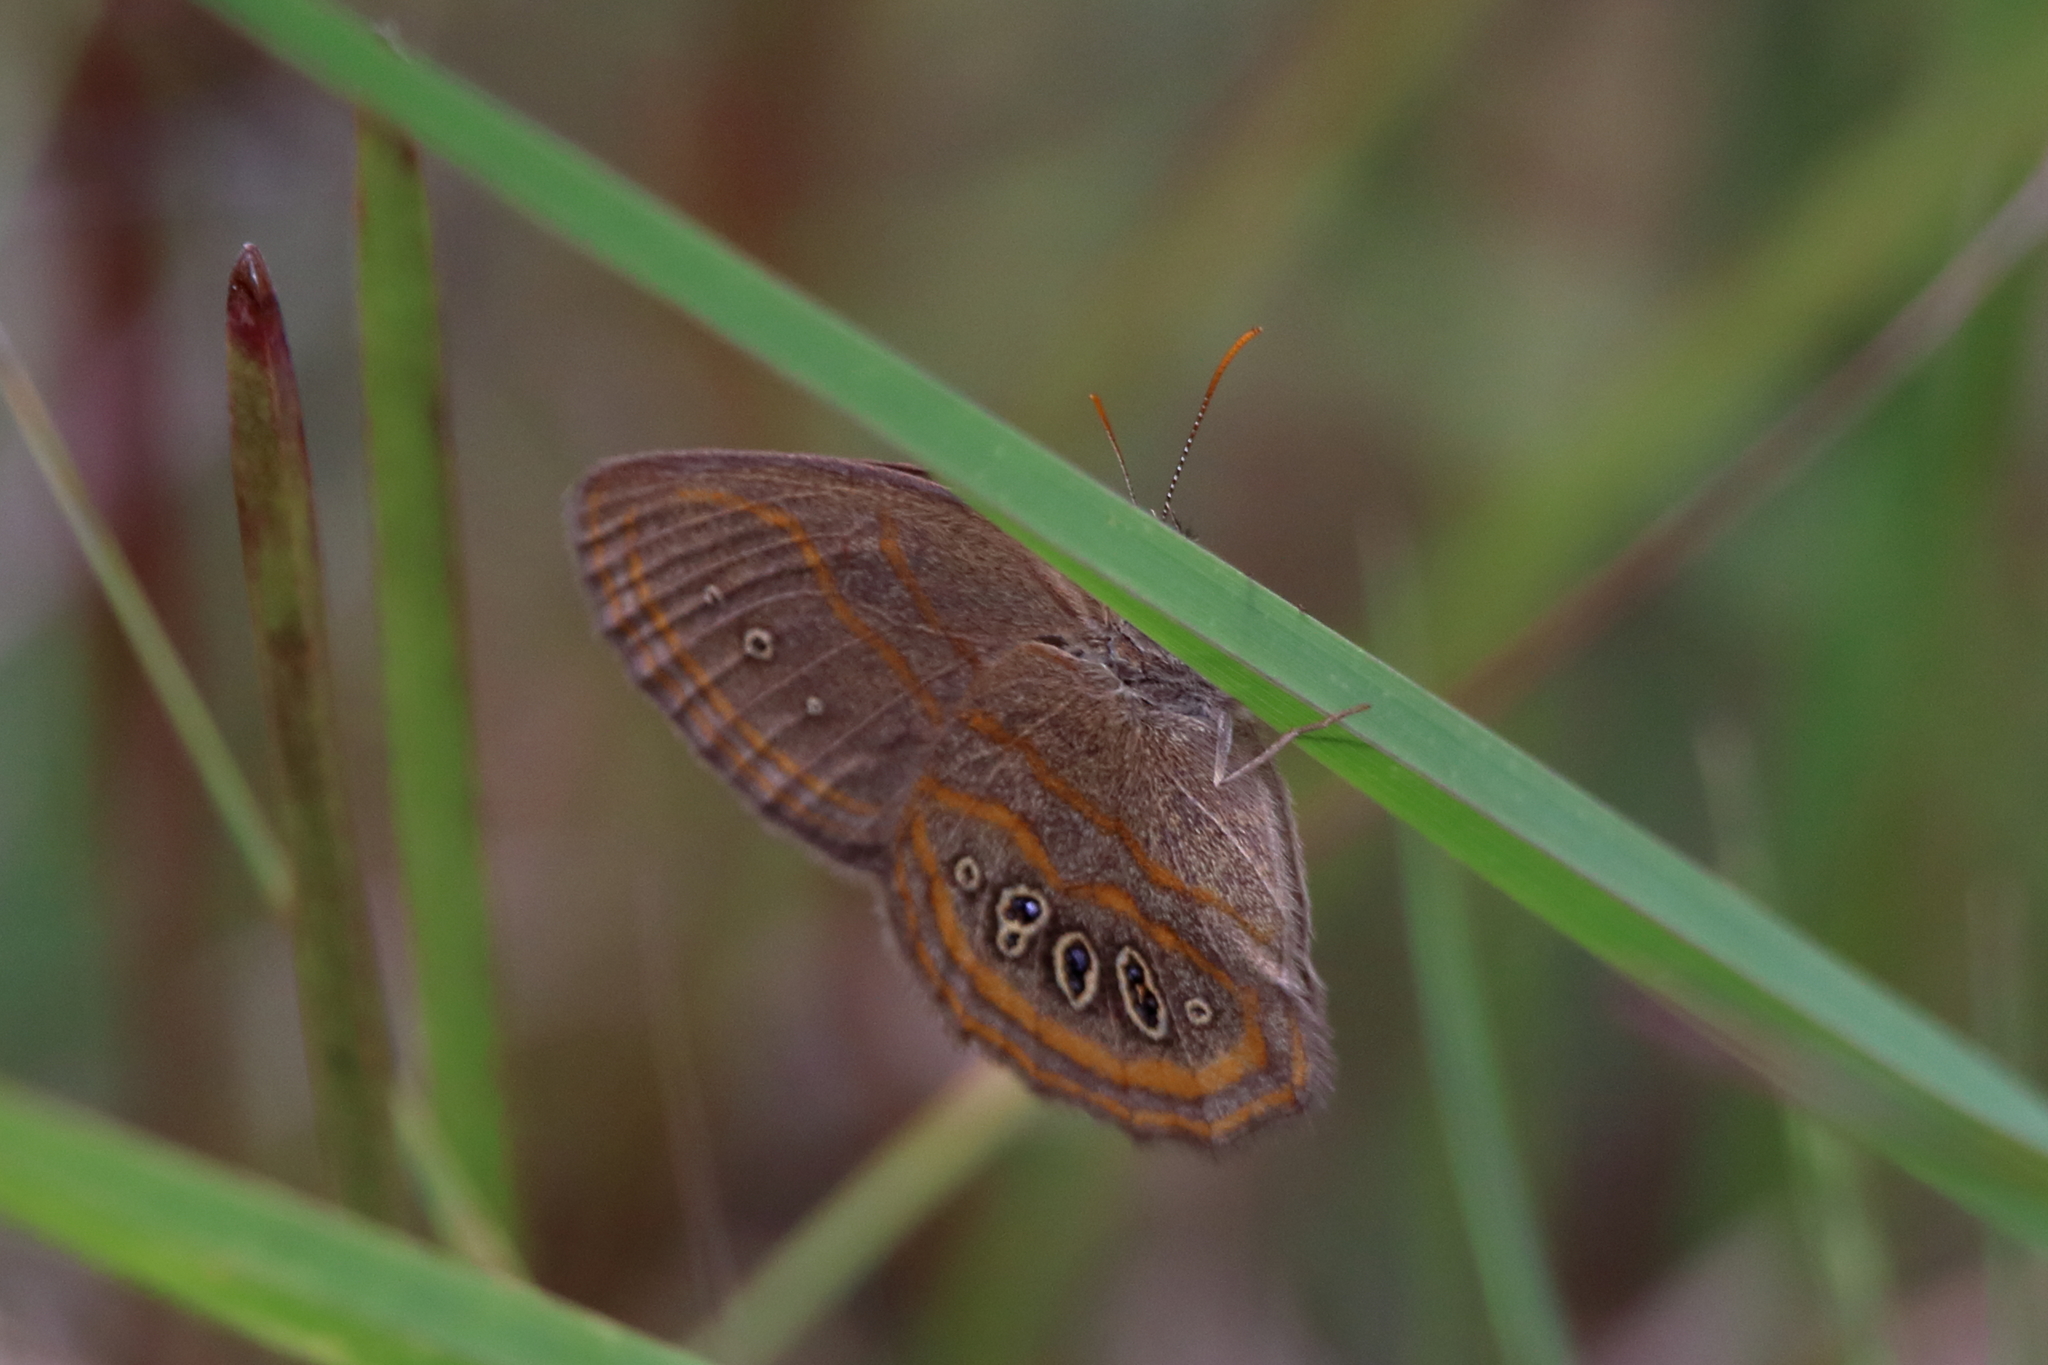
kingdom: Animalia
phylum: Arthropoda
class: Insecta
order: Lepidoptera
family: Nymphalidae
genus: Euptychia
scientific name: Euptychia phocion
